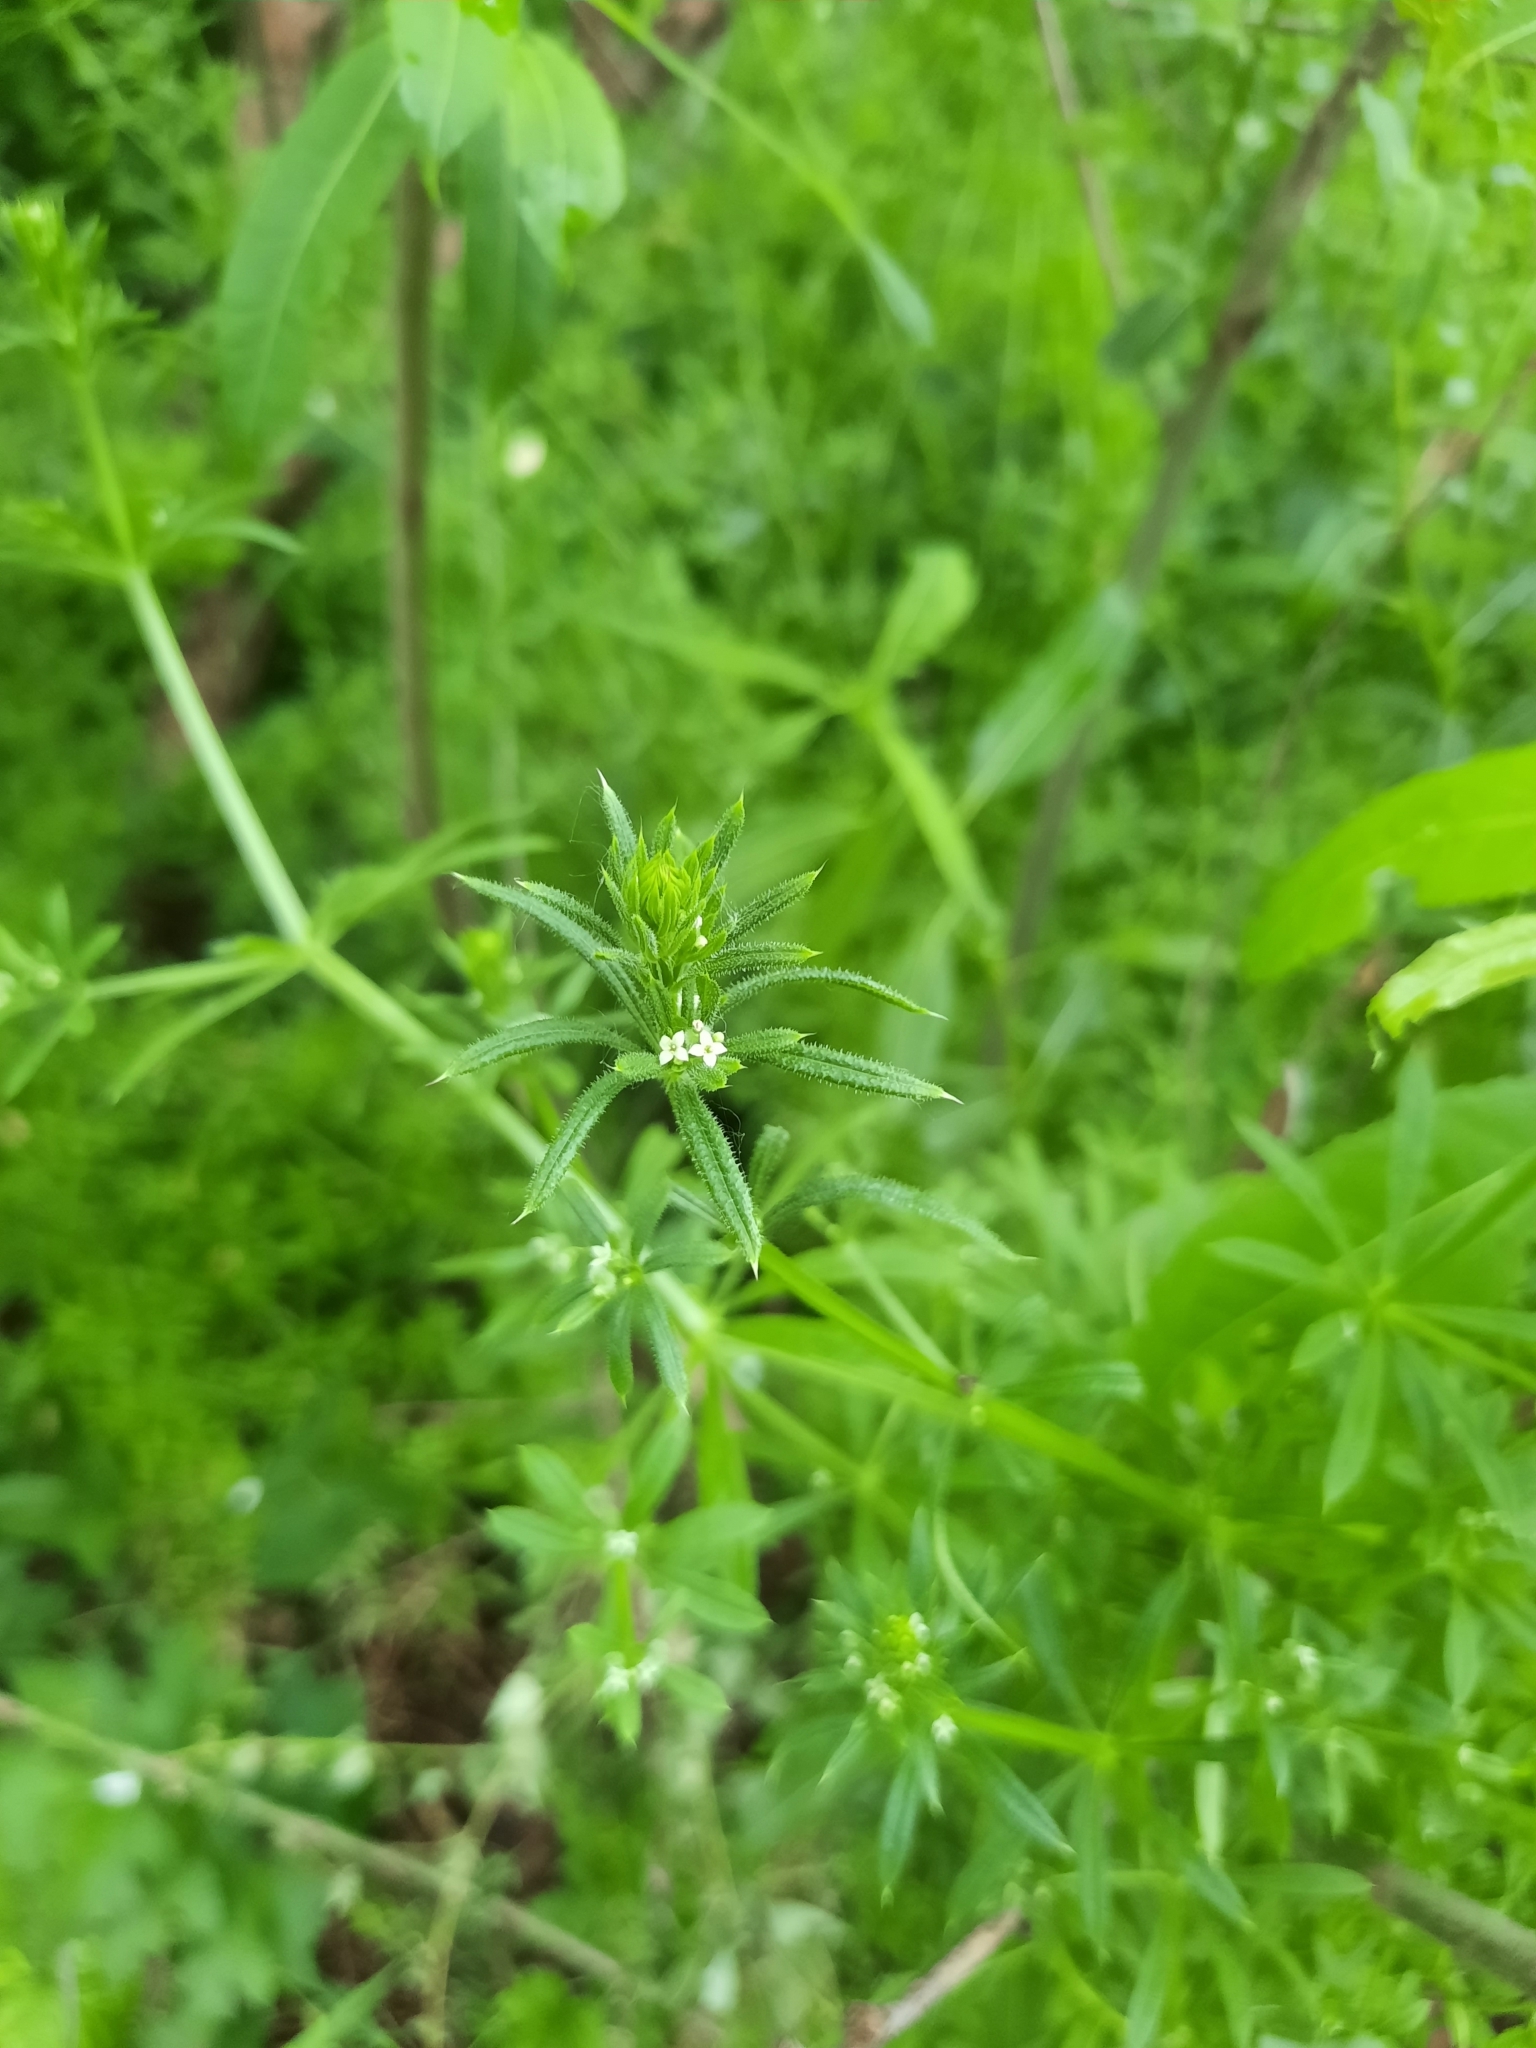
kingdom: Plantae
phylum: Tracheophyta
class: Magnoliopsida
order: Gentianales
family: Rubiaceae
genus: Galium
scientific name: Galium aparine
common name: Cleavers
